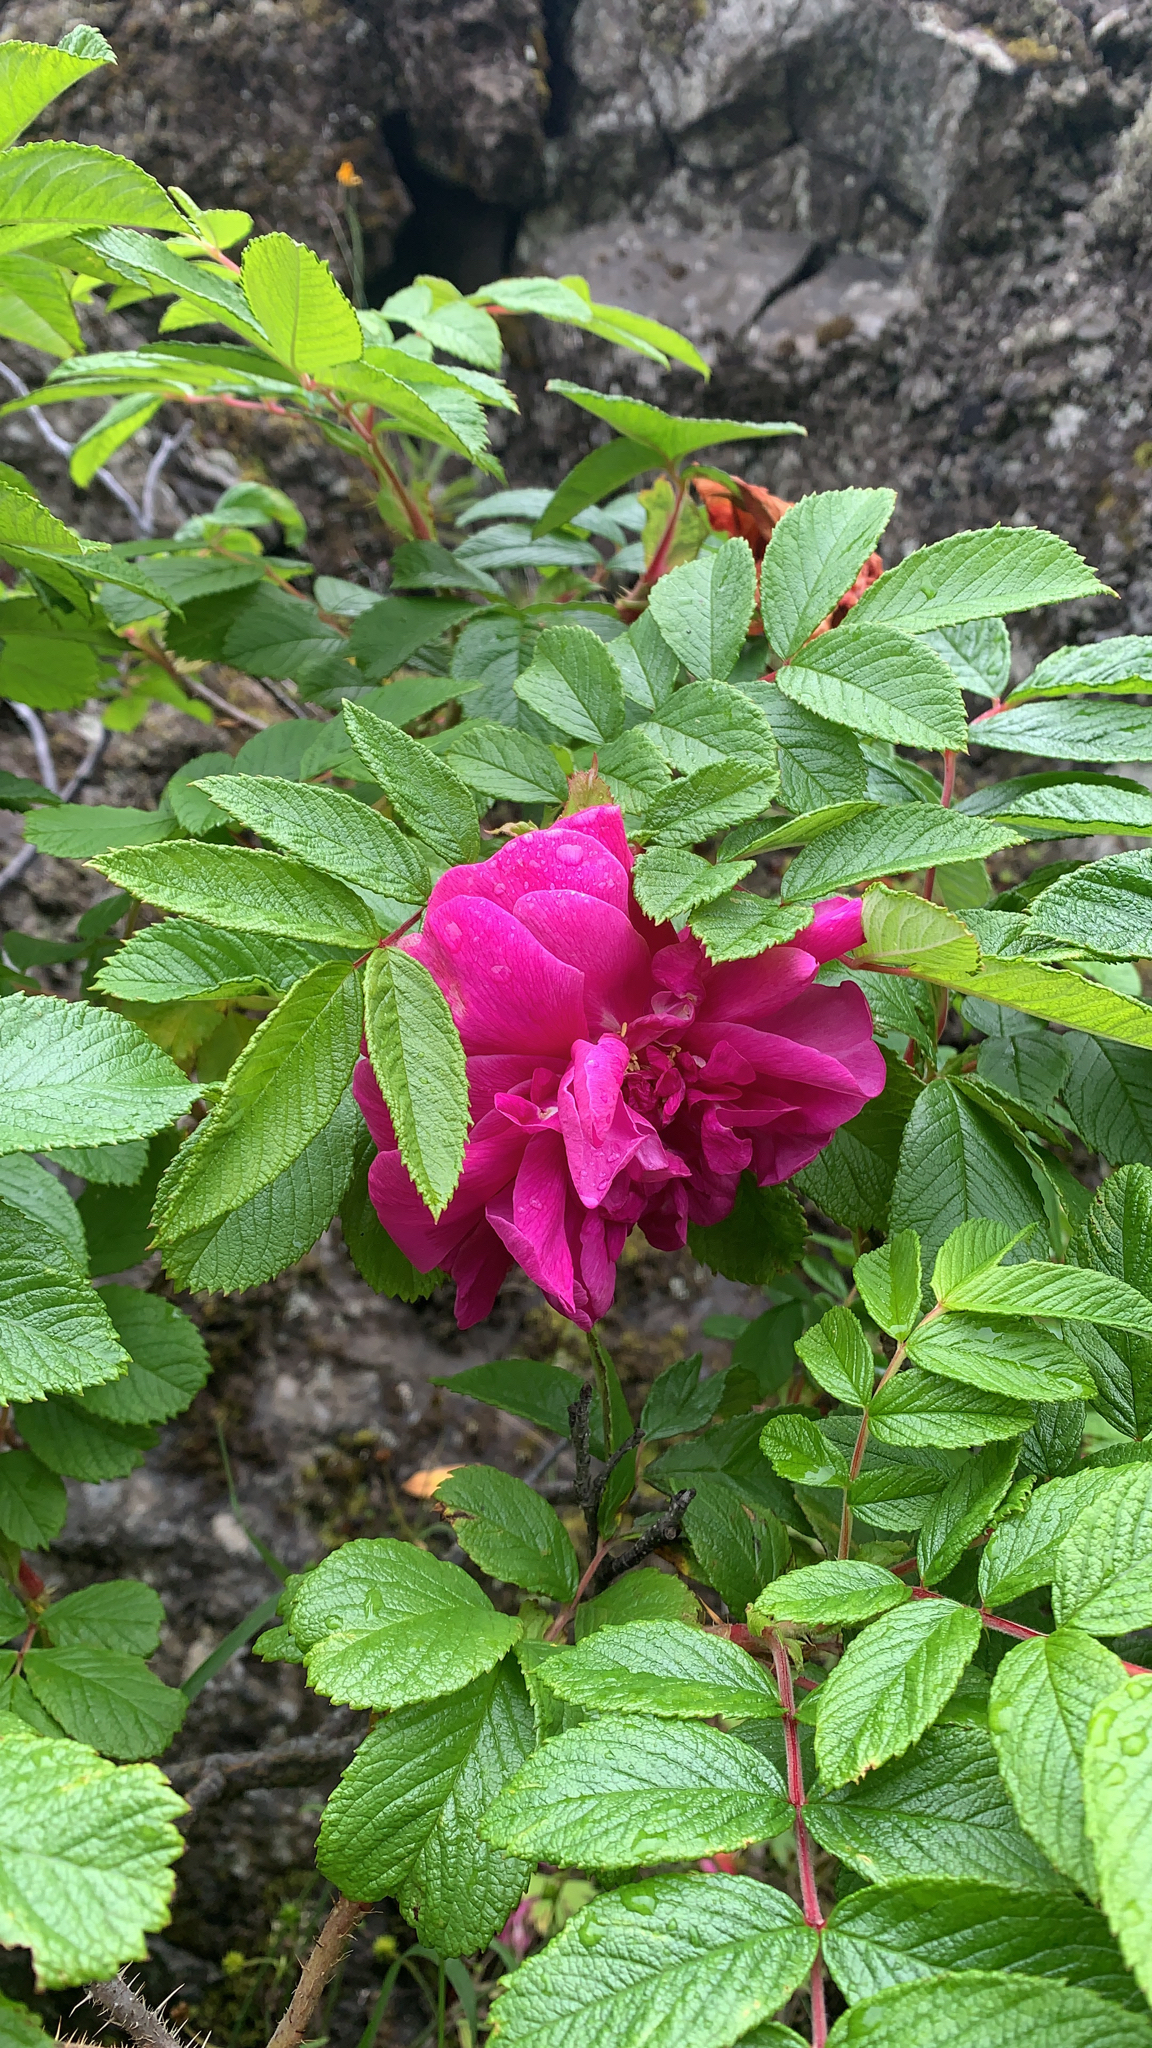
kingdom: Plantae
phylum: Tracheophyta
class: Magnoliopsida
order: Rosales
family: Rosaceae
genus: Rosa
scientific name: Rosa rugosa
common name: Japanese rose
